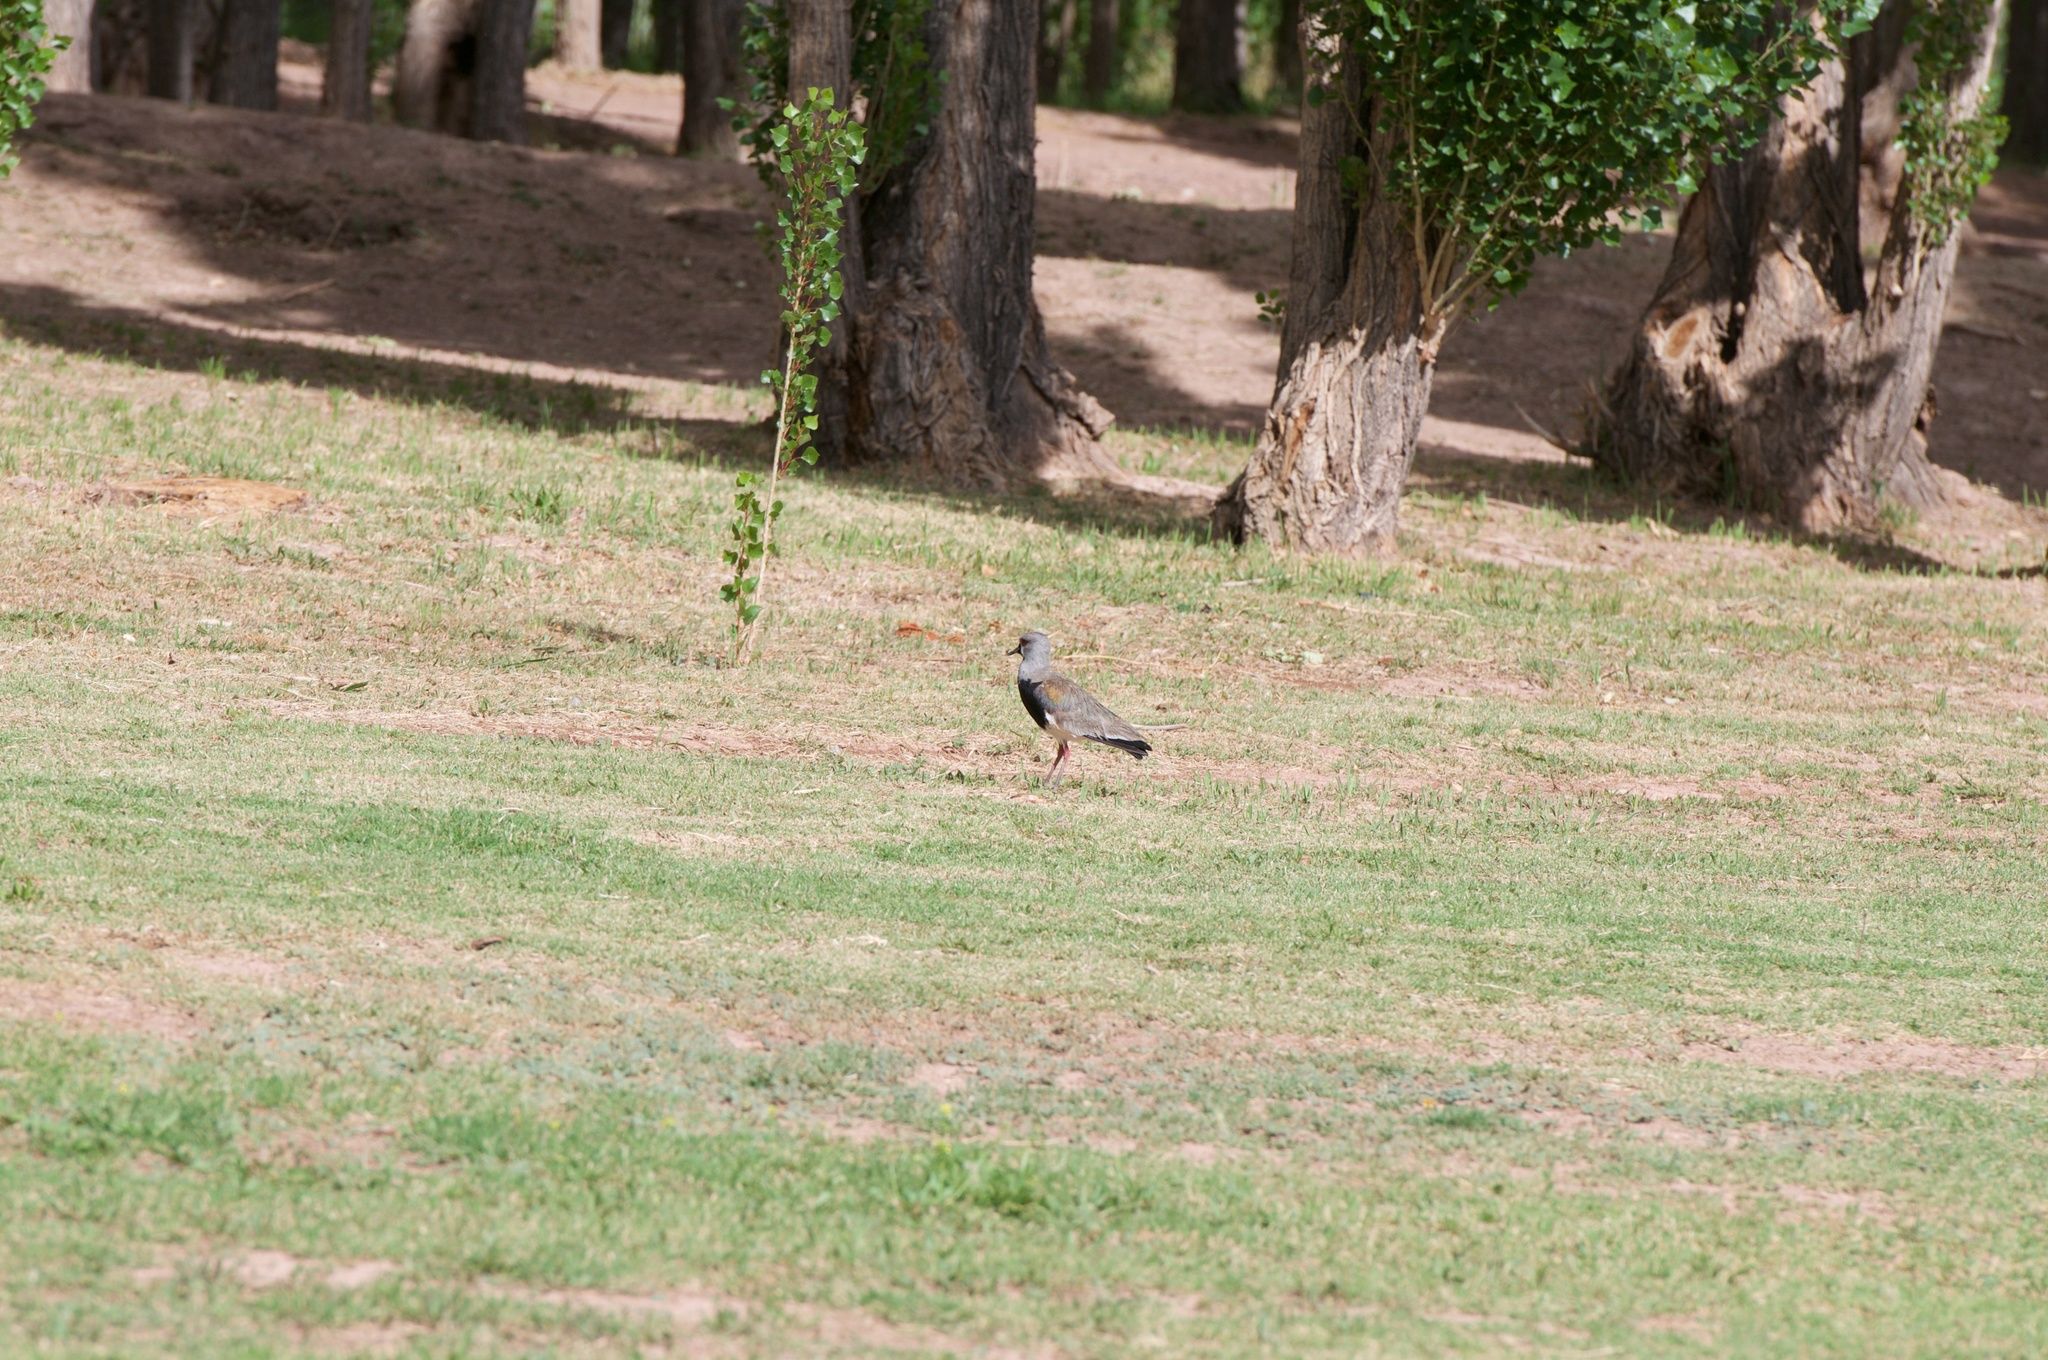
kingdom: Animalia
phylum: Chordata
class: Aves
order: Charadriiformes
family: Charadriidae
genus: Vanellus
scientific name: Vanellus chilensis
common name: Southern lapwing
